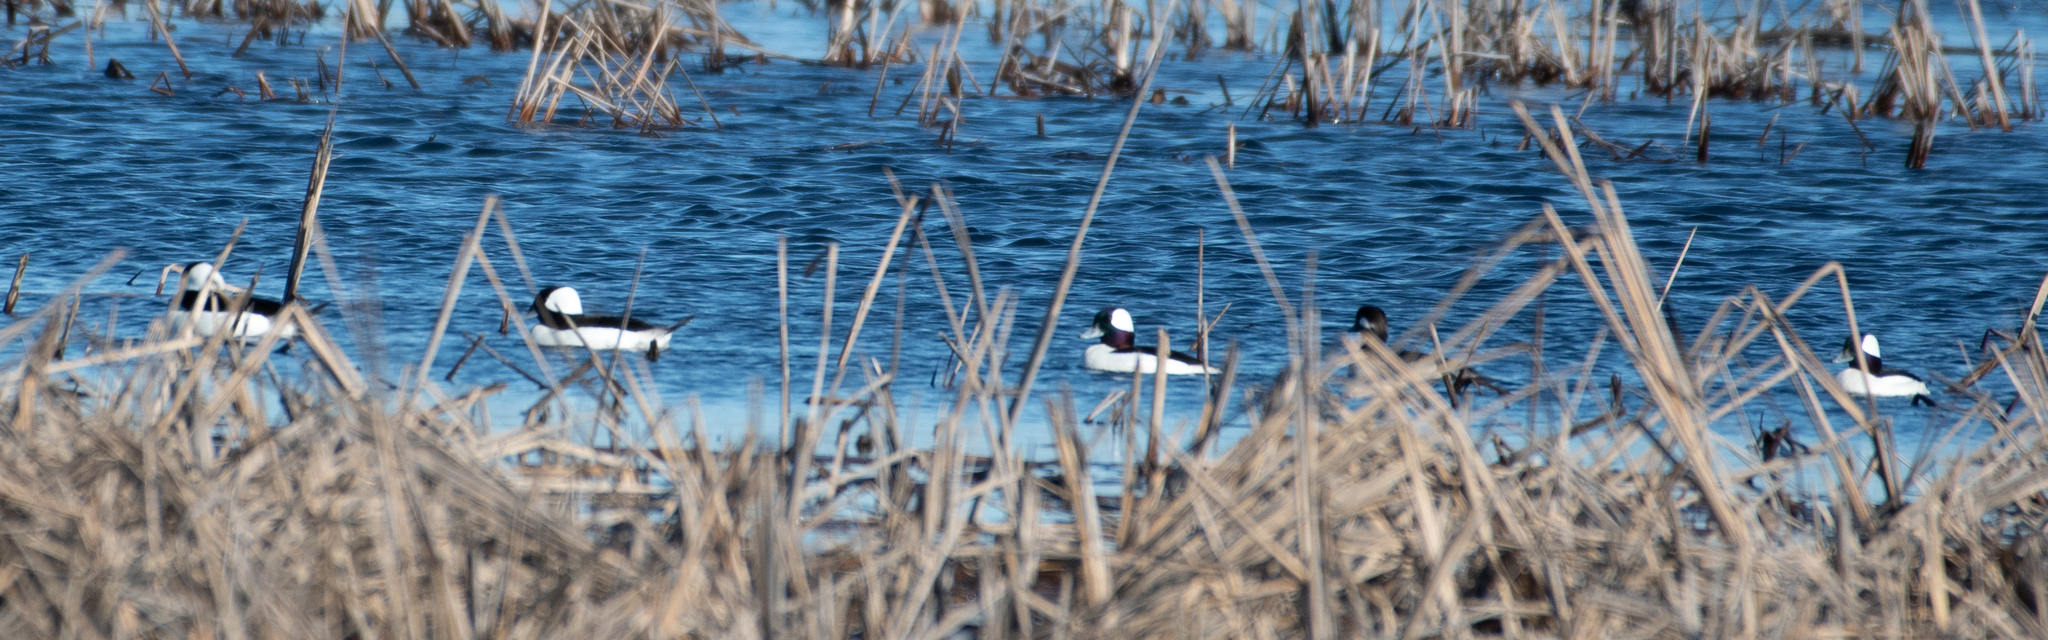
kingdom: Animalia
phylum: Chordata
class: Aves
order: Anseriformes
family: Anatidae
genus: Bucephala
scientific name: Bucephala albeola
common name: Bufflehead
